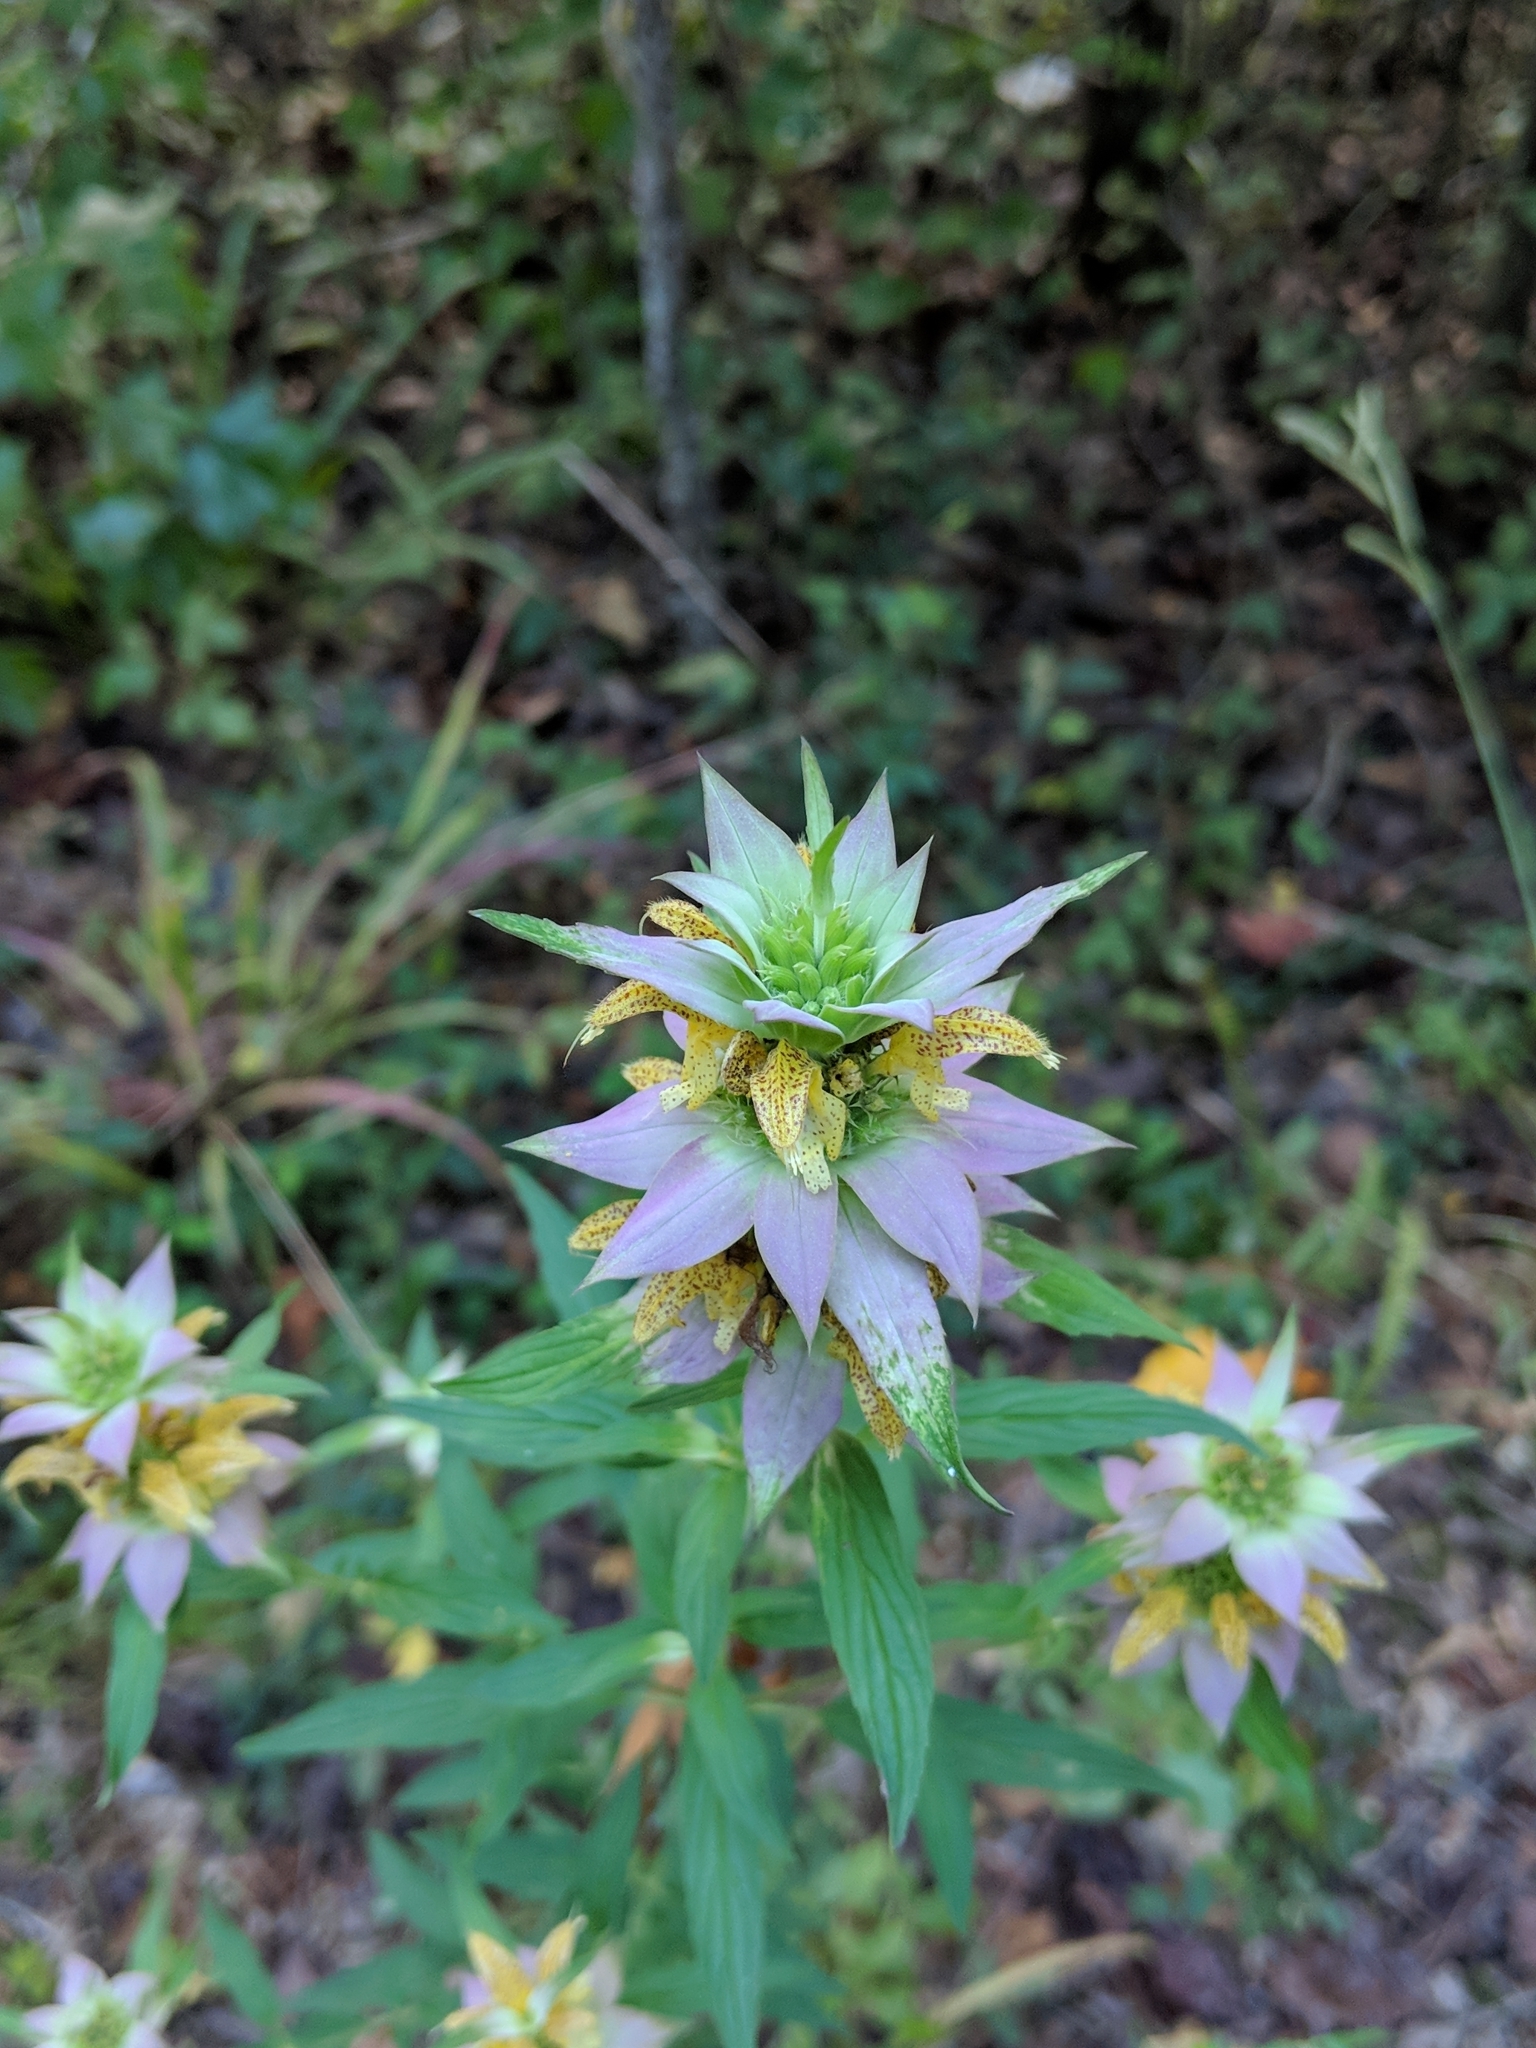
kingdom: Plantae
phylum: Tracheophyta
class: Magnoliopsida
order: Lamiales
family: Lamiaceae
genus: Monarda
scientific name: Monarda punctata
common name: Dotted monarda
